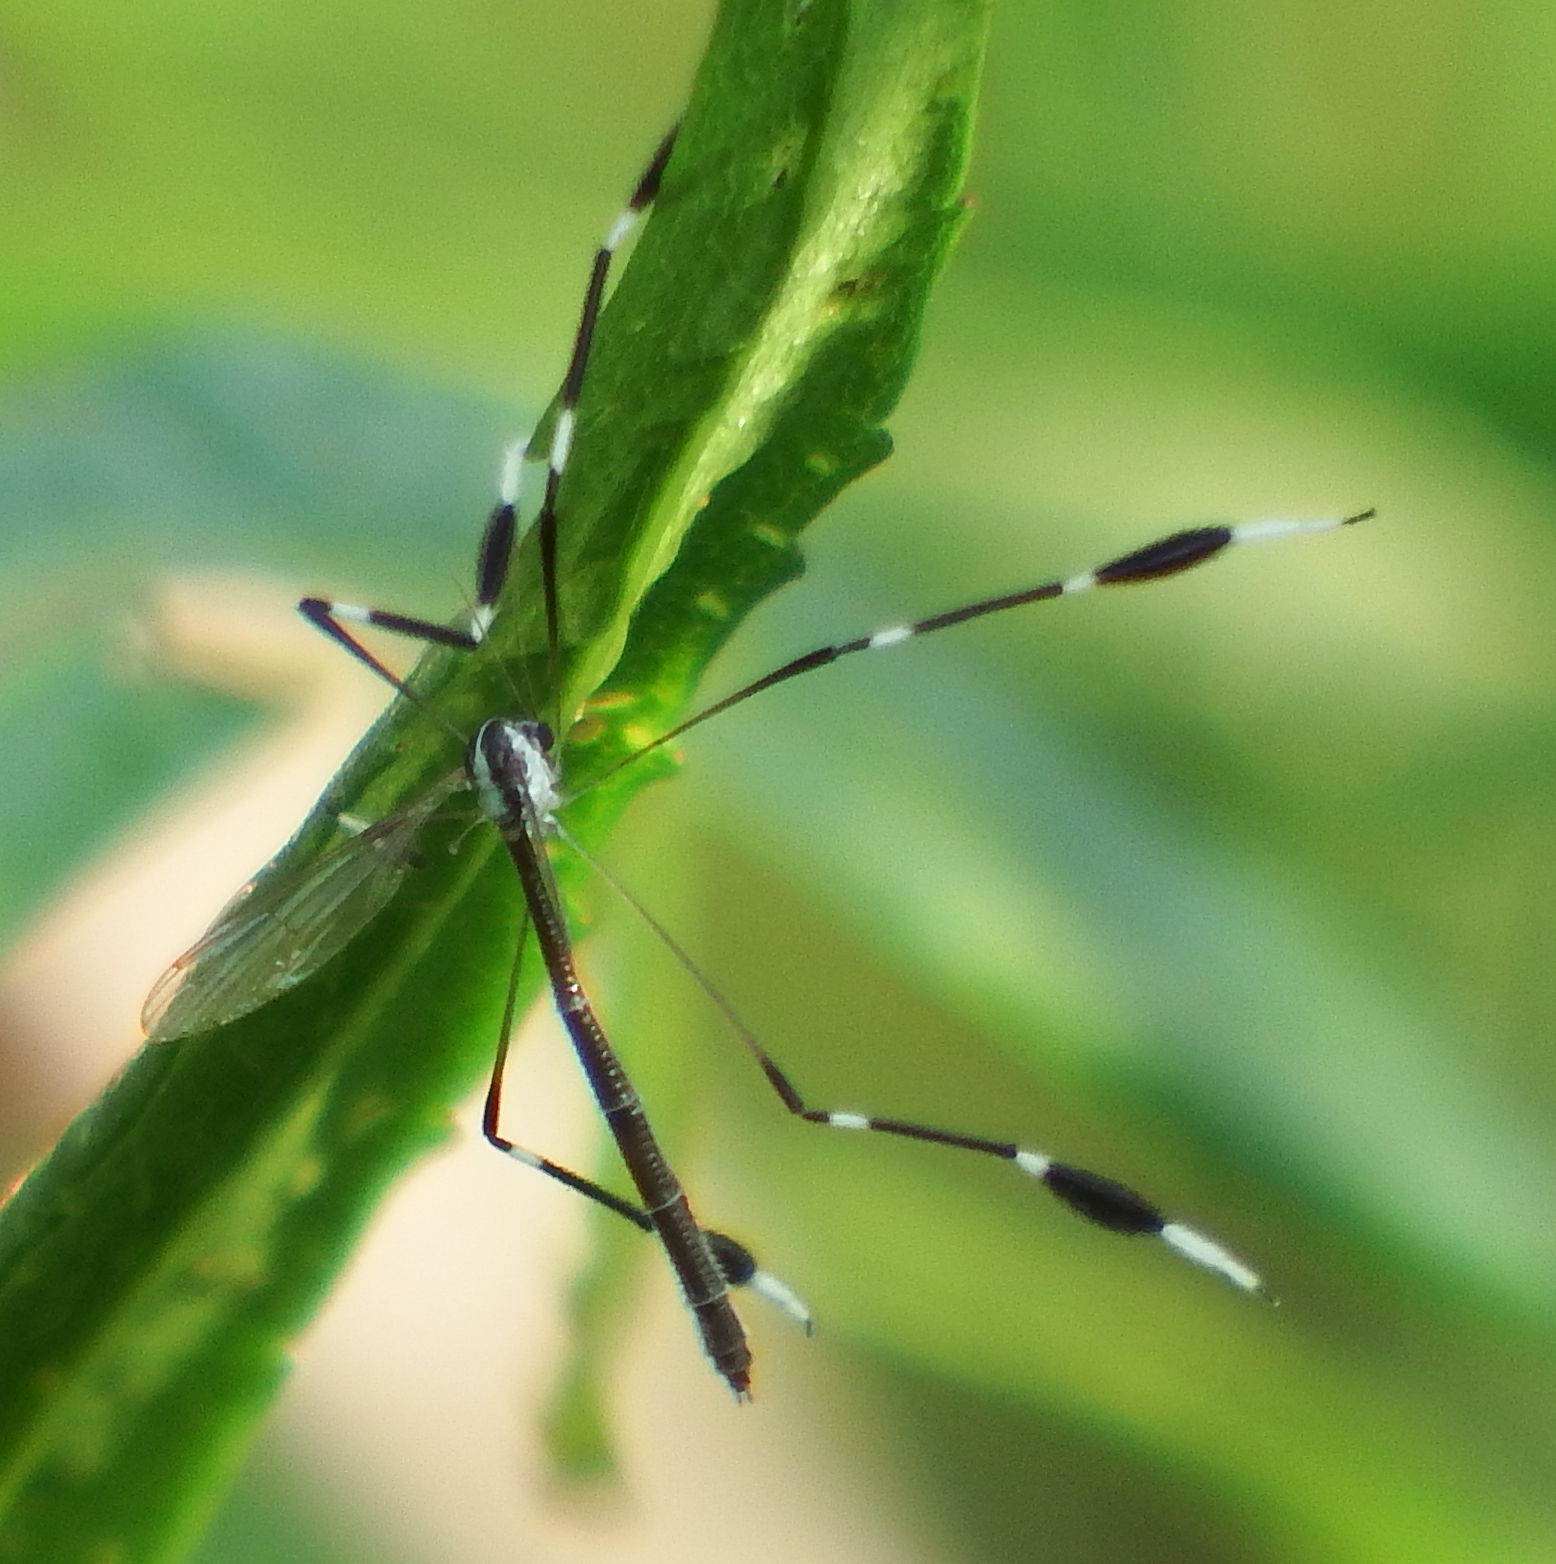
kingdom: Animalia
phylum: Arthropoda
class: Insecta
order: Diptera
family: Ptychopteridae
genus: Bittacomorpha
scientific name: Bittacomorpha clavipes
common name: Eastern phantom crane fly
